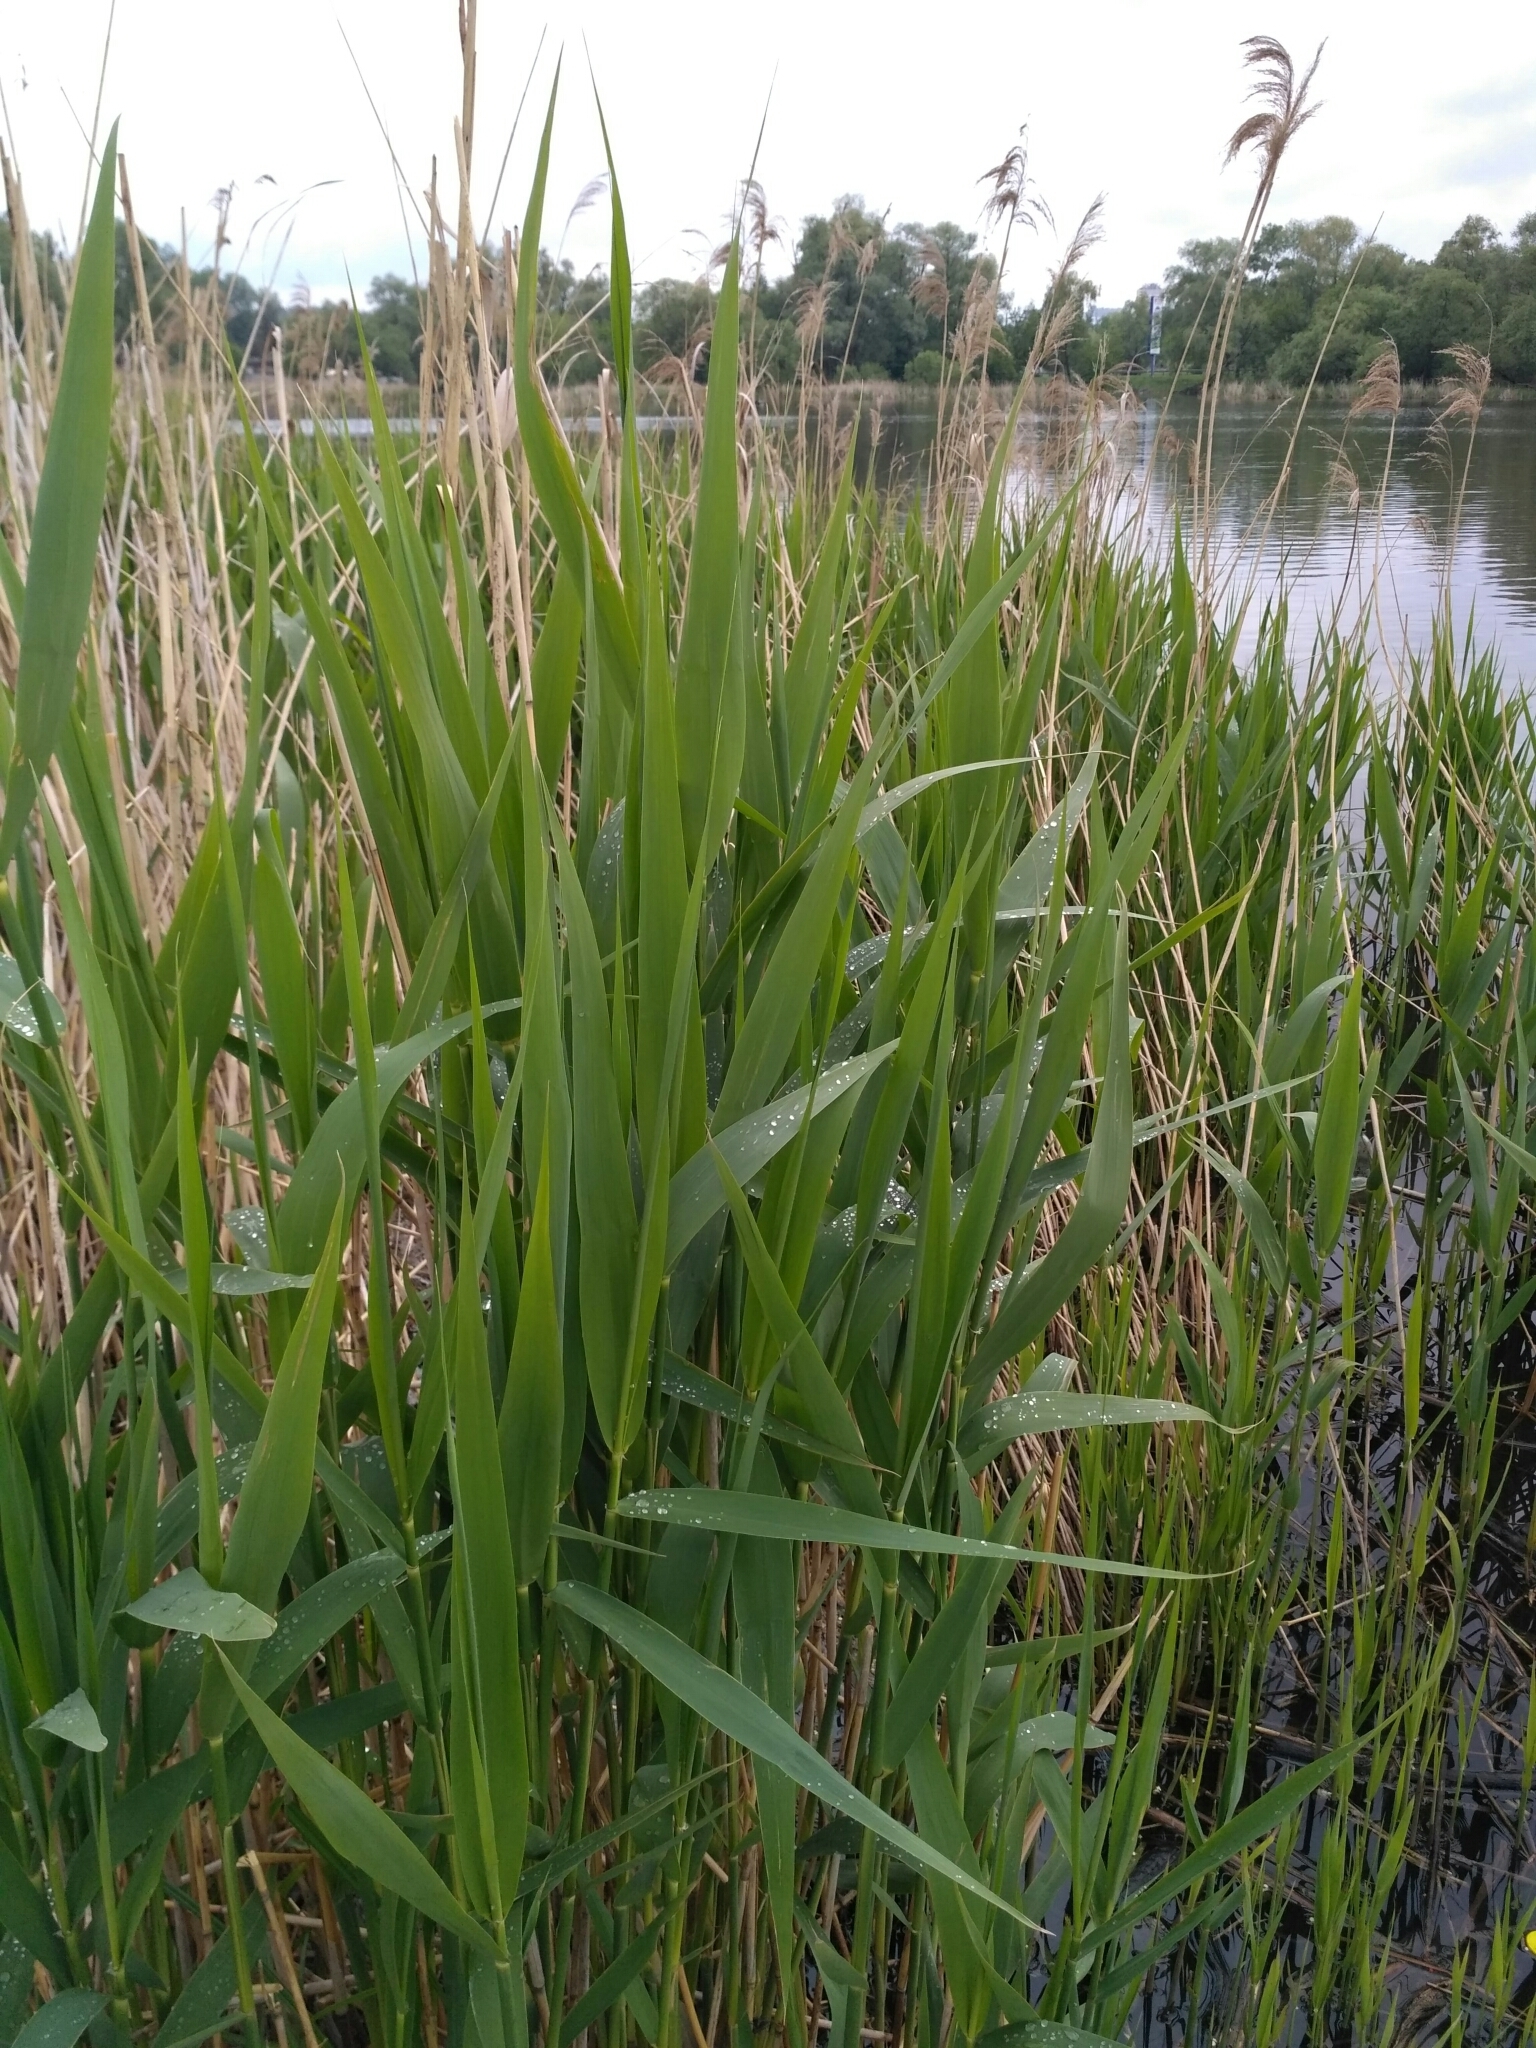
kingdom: Plantae
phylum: Tracheophyta
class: Liliopsida
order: Poales
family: Poaceae
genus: Phragmites
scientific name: Phragmites australis
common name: Common reed
